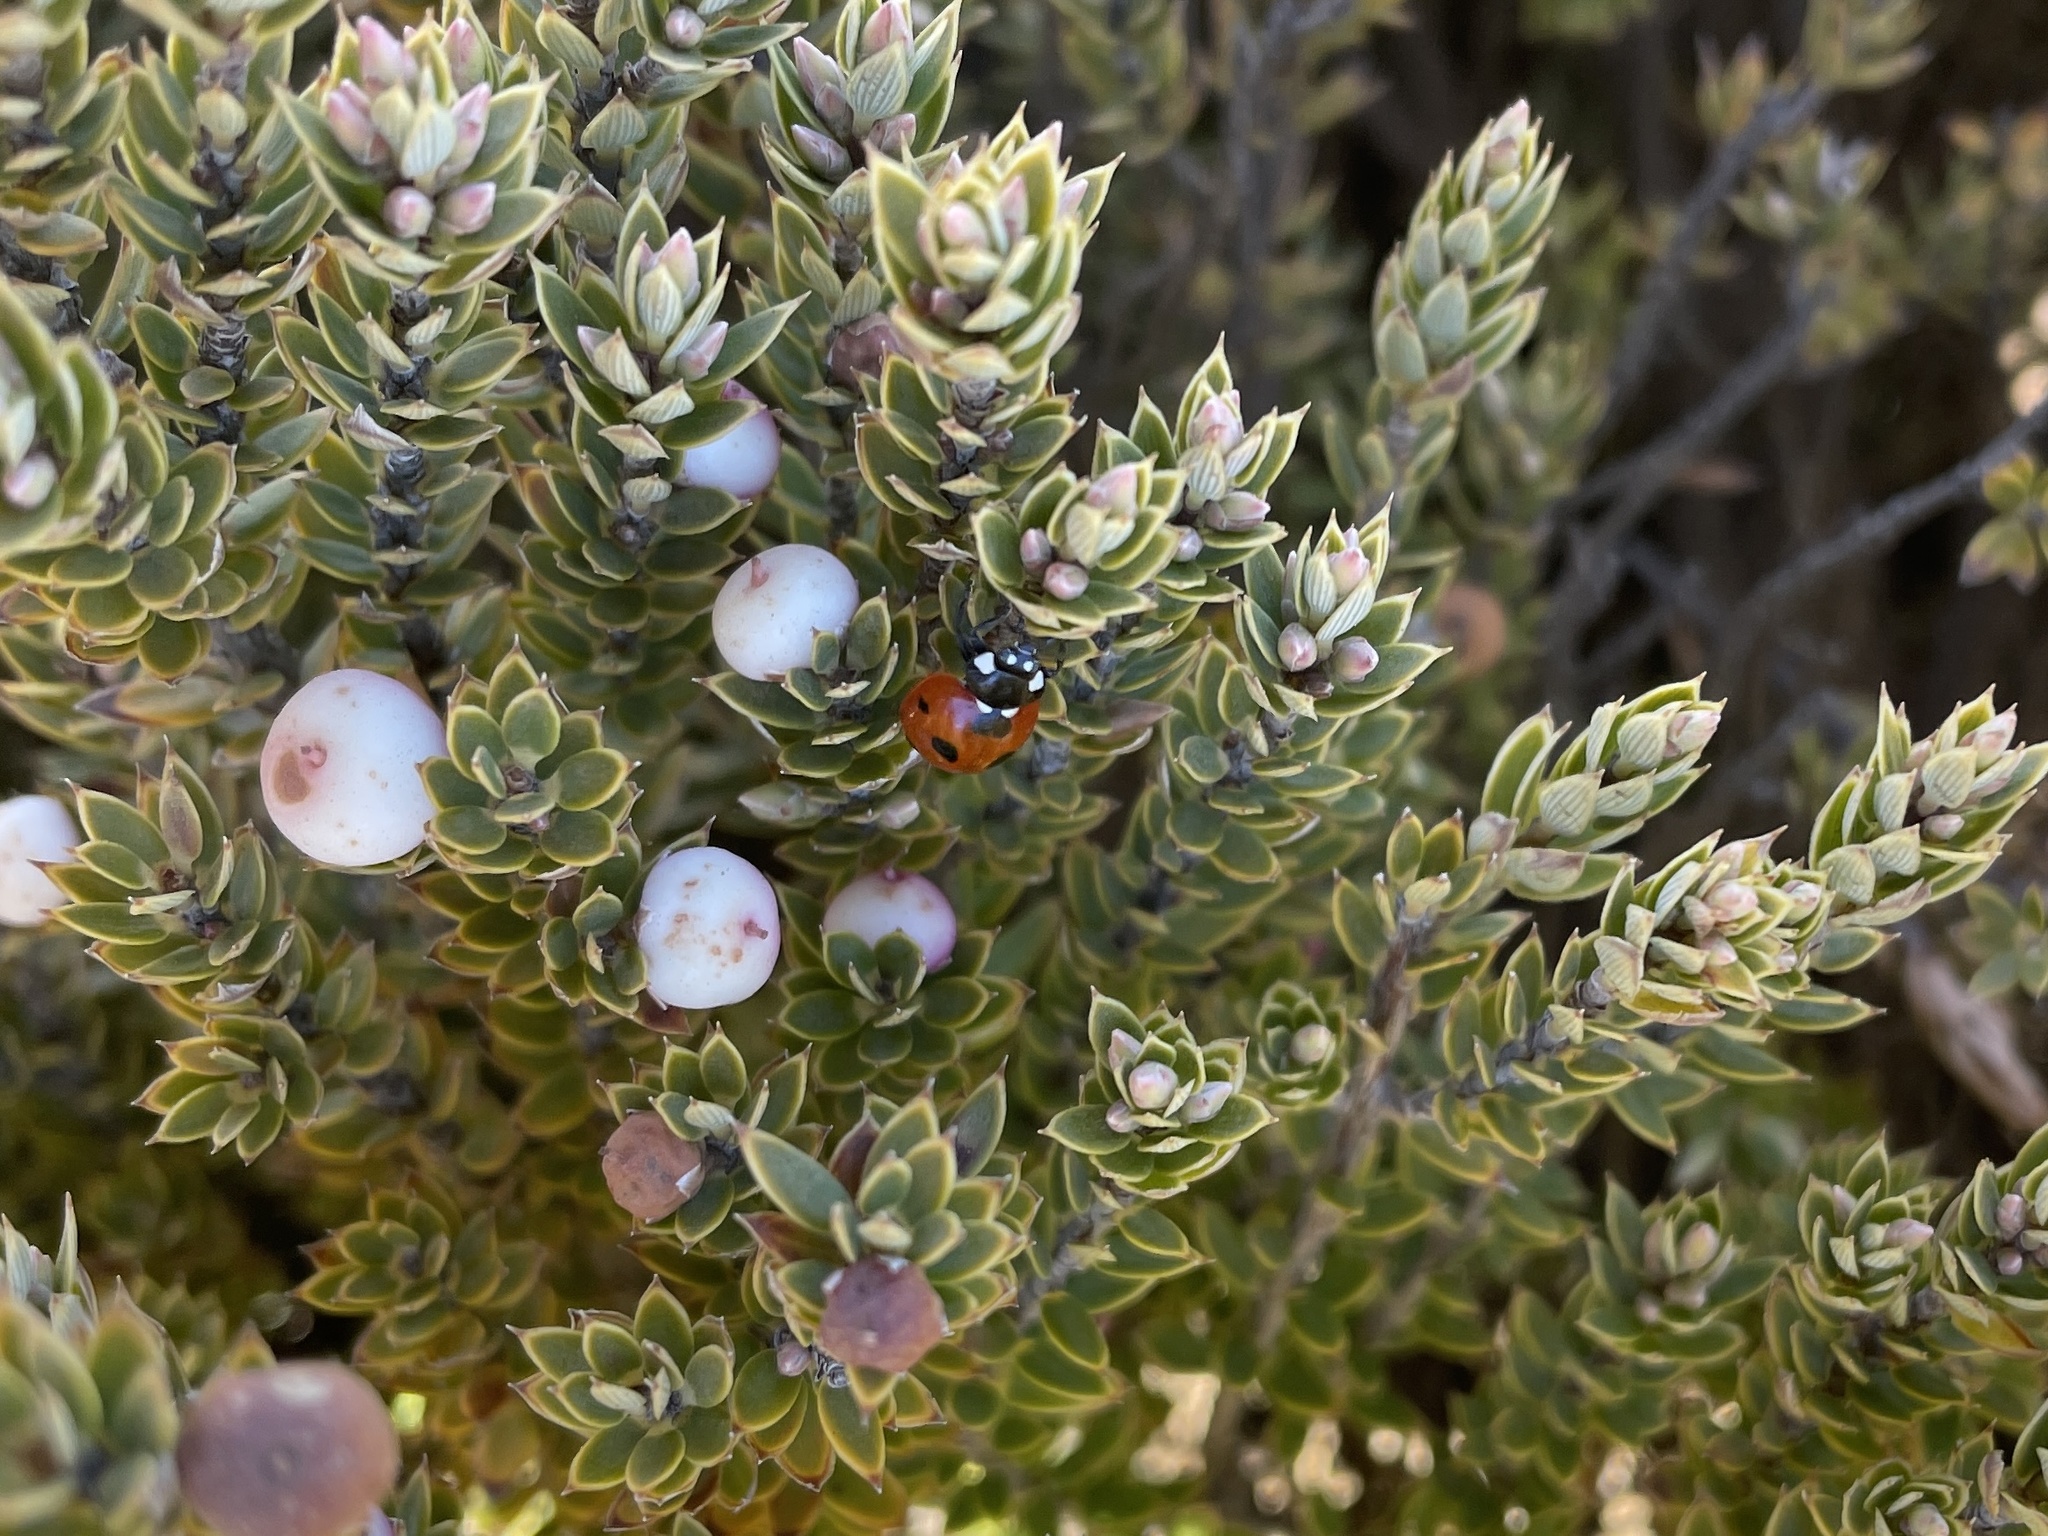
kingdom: Animalia
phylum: Arthropoda
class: Insecta
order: Coleoptera
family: Coccinellidae
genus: Coccinella
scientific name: Coccinella septempunctata
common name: Sevenspotted lady beetle
